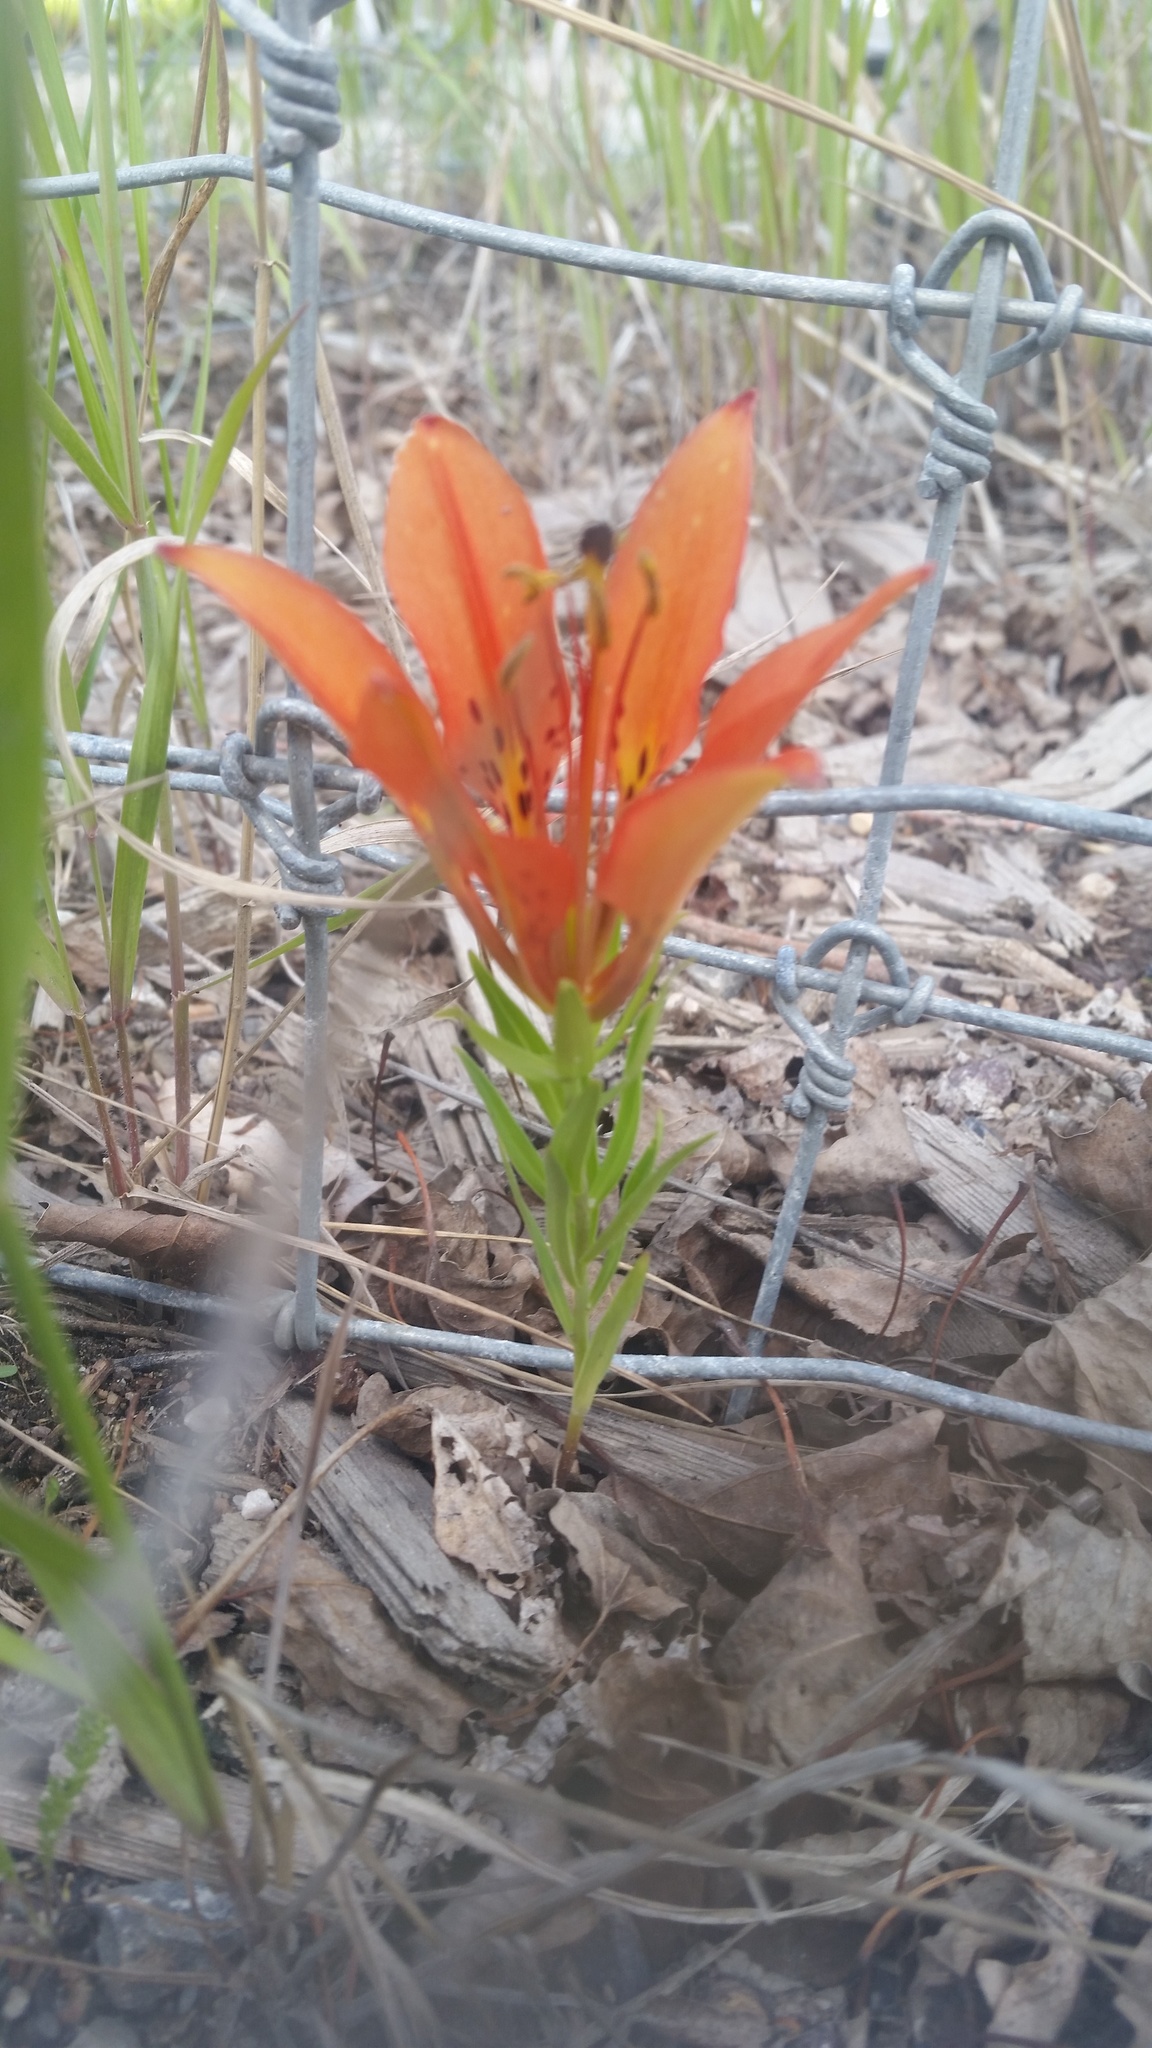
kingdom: Plantae
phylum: Tracheophyta
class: Liliopsida
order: Liliales
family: Liliaceae
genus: Lilium
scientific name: Lilium philadelphicum
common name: Red lily
